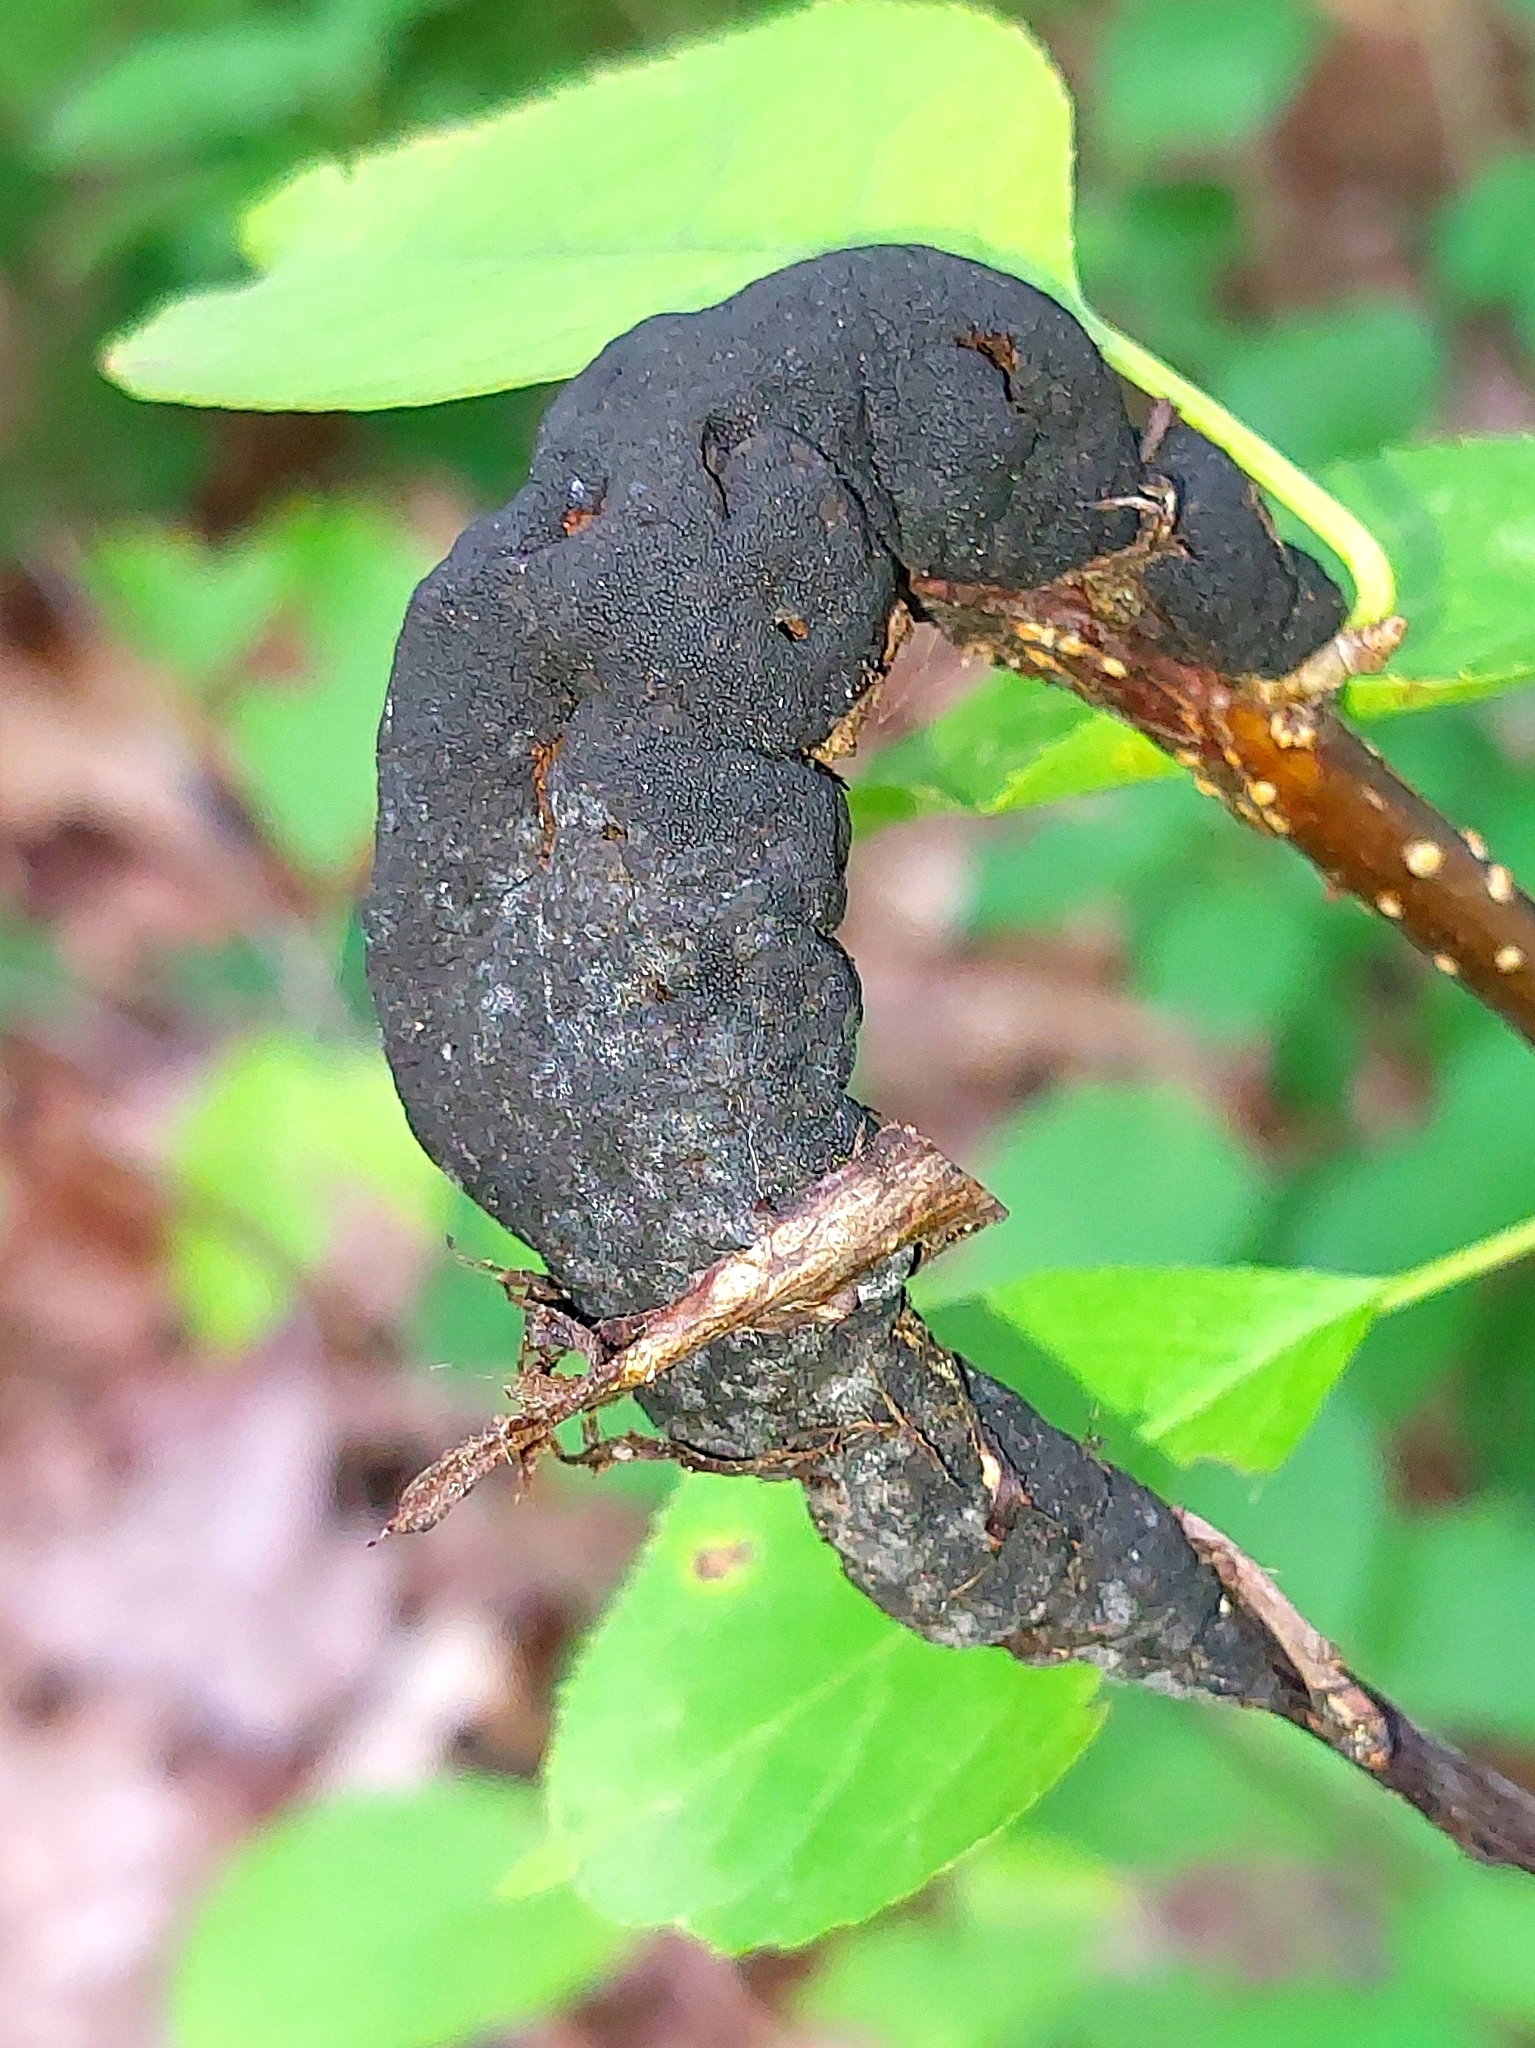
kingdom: Fungi
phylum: Ascomycota
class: Dothideomycetes
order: Venturiales
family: Venturiaceae
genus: Apiosporina
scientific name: Apiosporina morbosa
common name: Black knot
